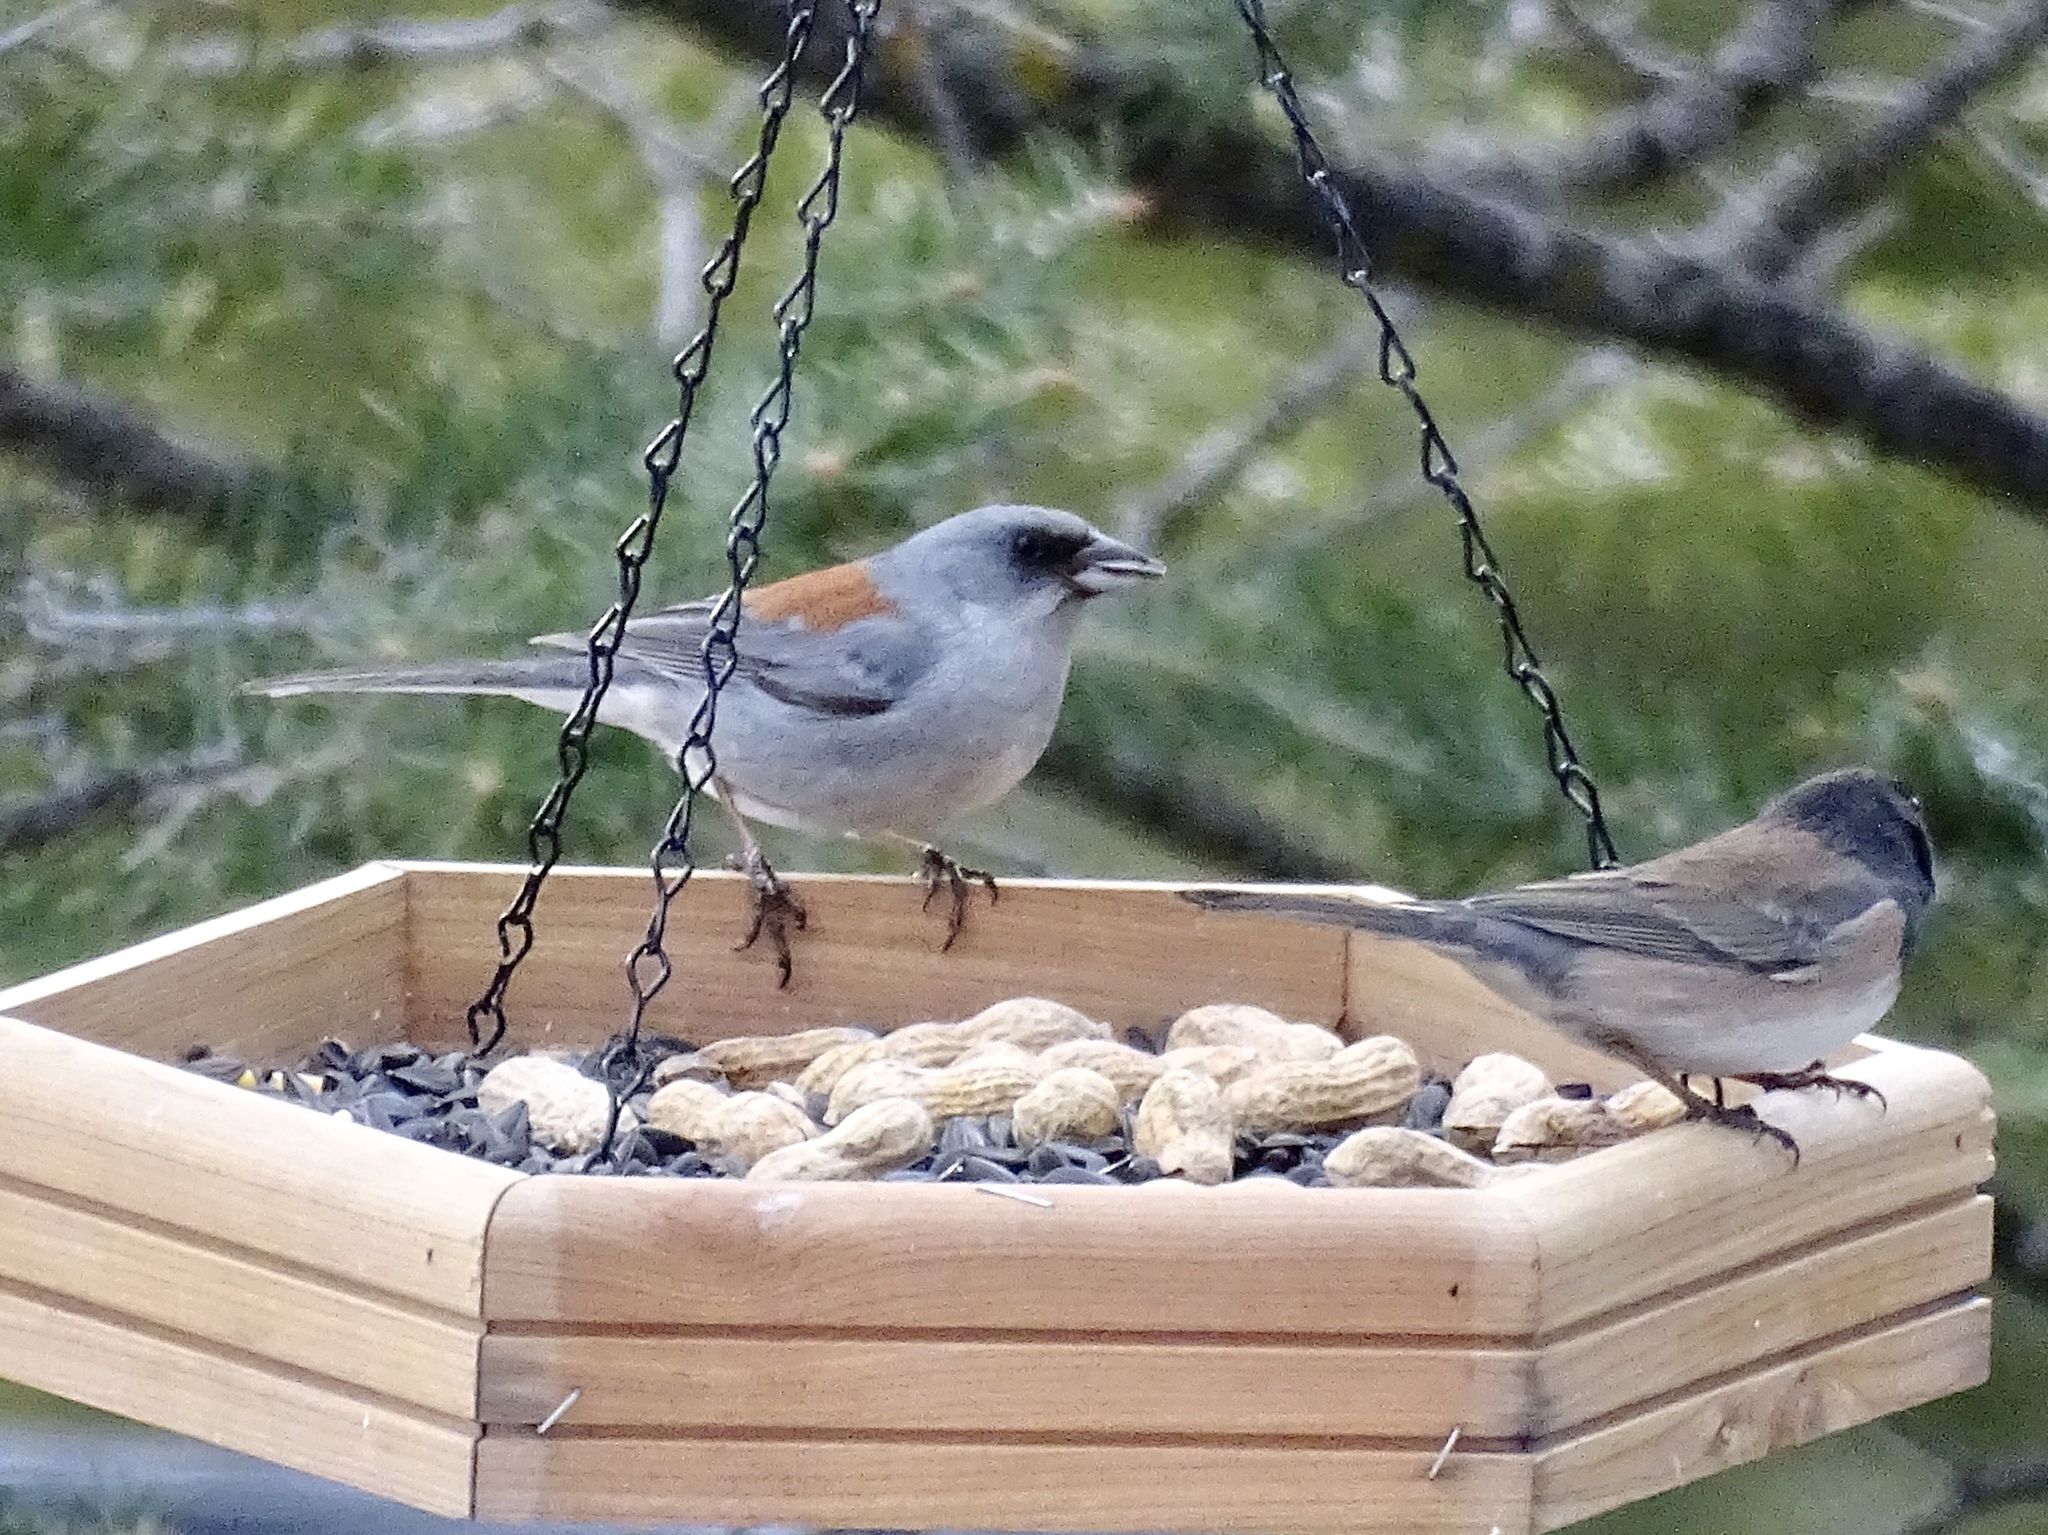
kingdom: Animalia
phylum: Chordata
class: Aves
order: Passeriformes
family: Passerellidae
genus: Junco
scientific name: Junco hyemalis
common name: Dark-eyed junco
